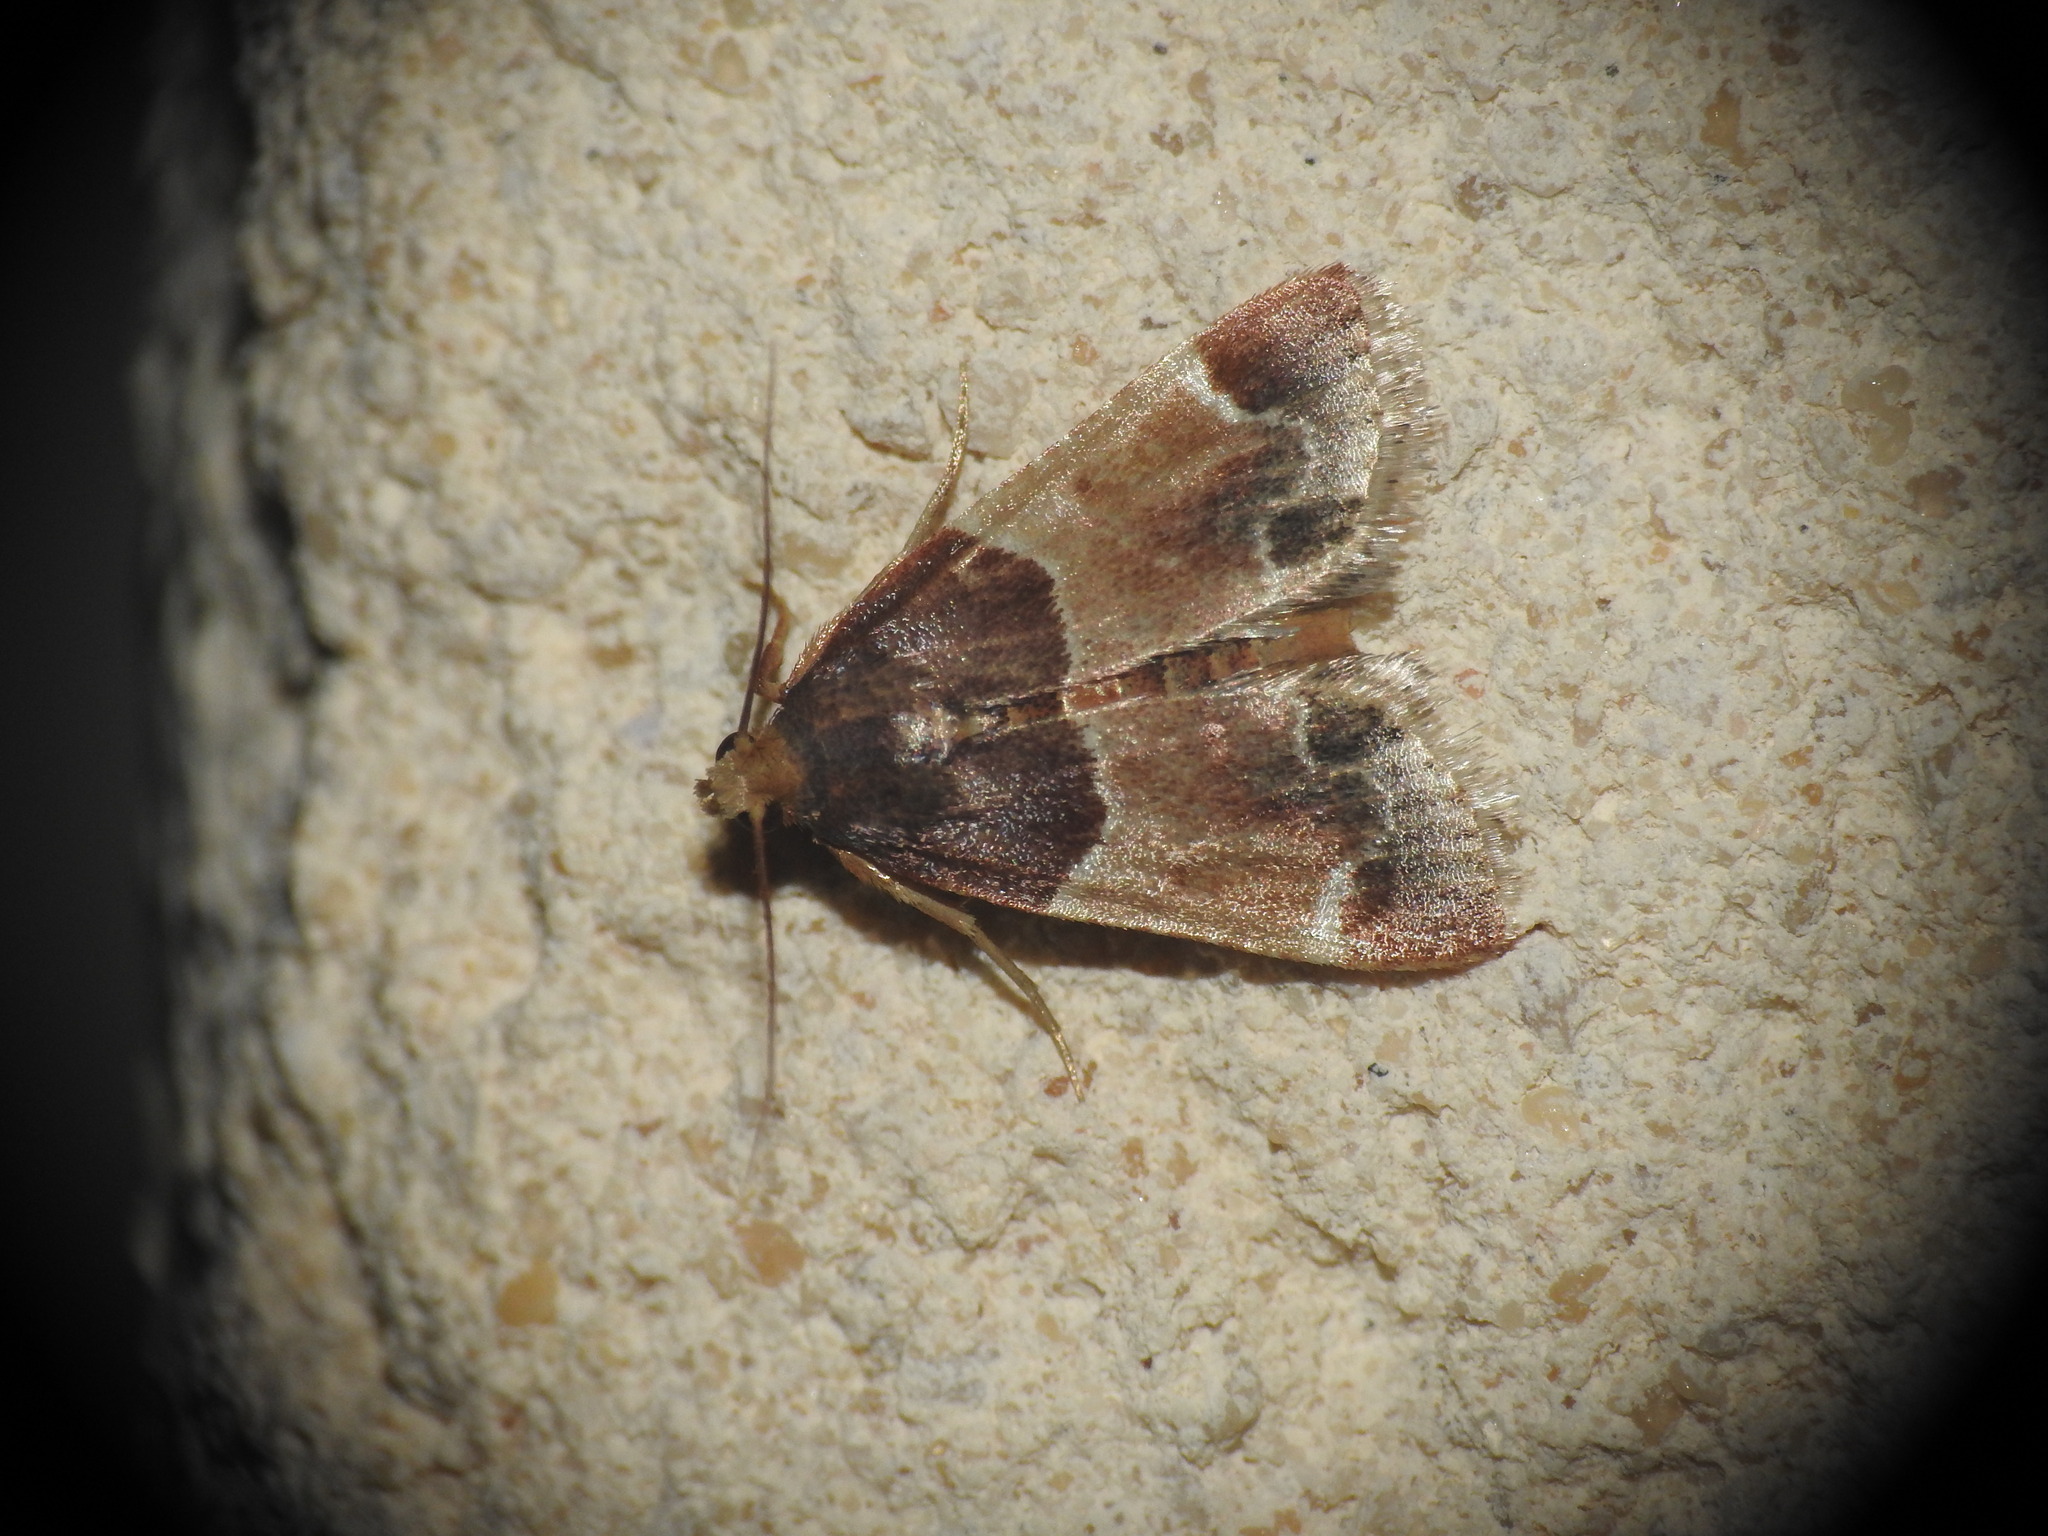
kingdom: Animalia
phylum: Arthropoda
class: Insecta
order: Lepidoptera
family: Pyralidae
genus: Pyralis
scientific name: Pyralis farinalis
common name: Meal moth
